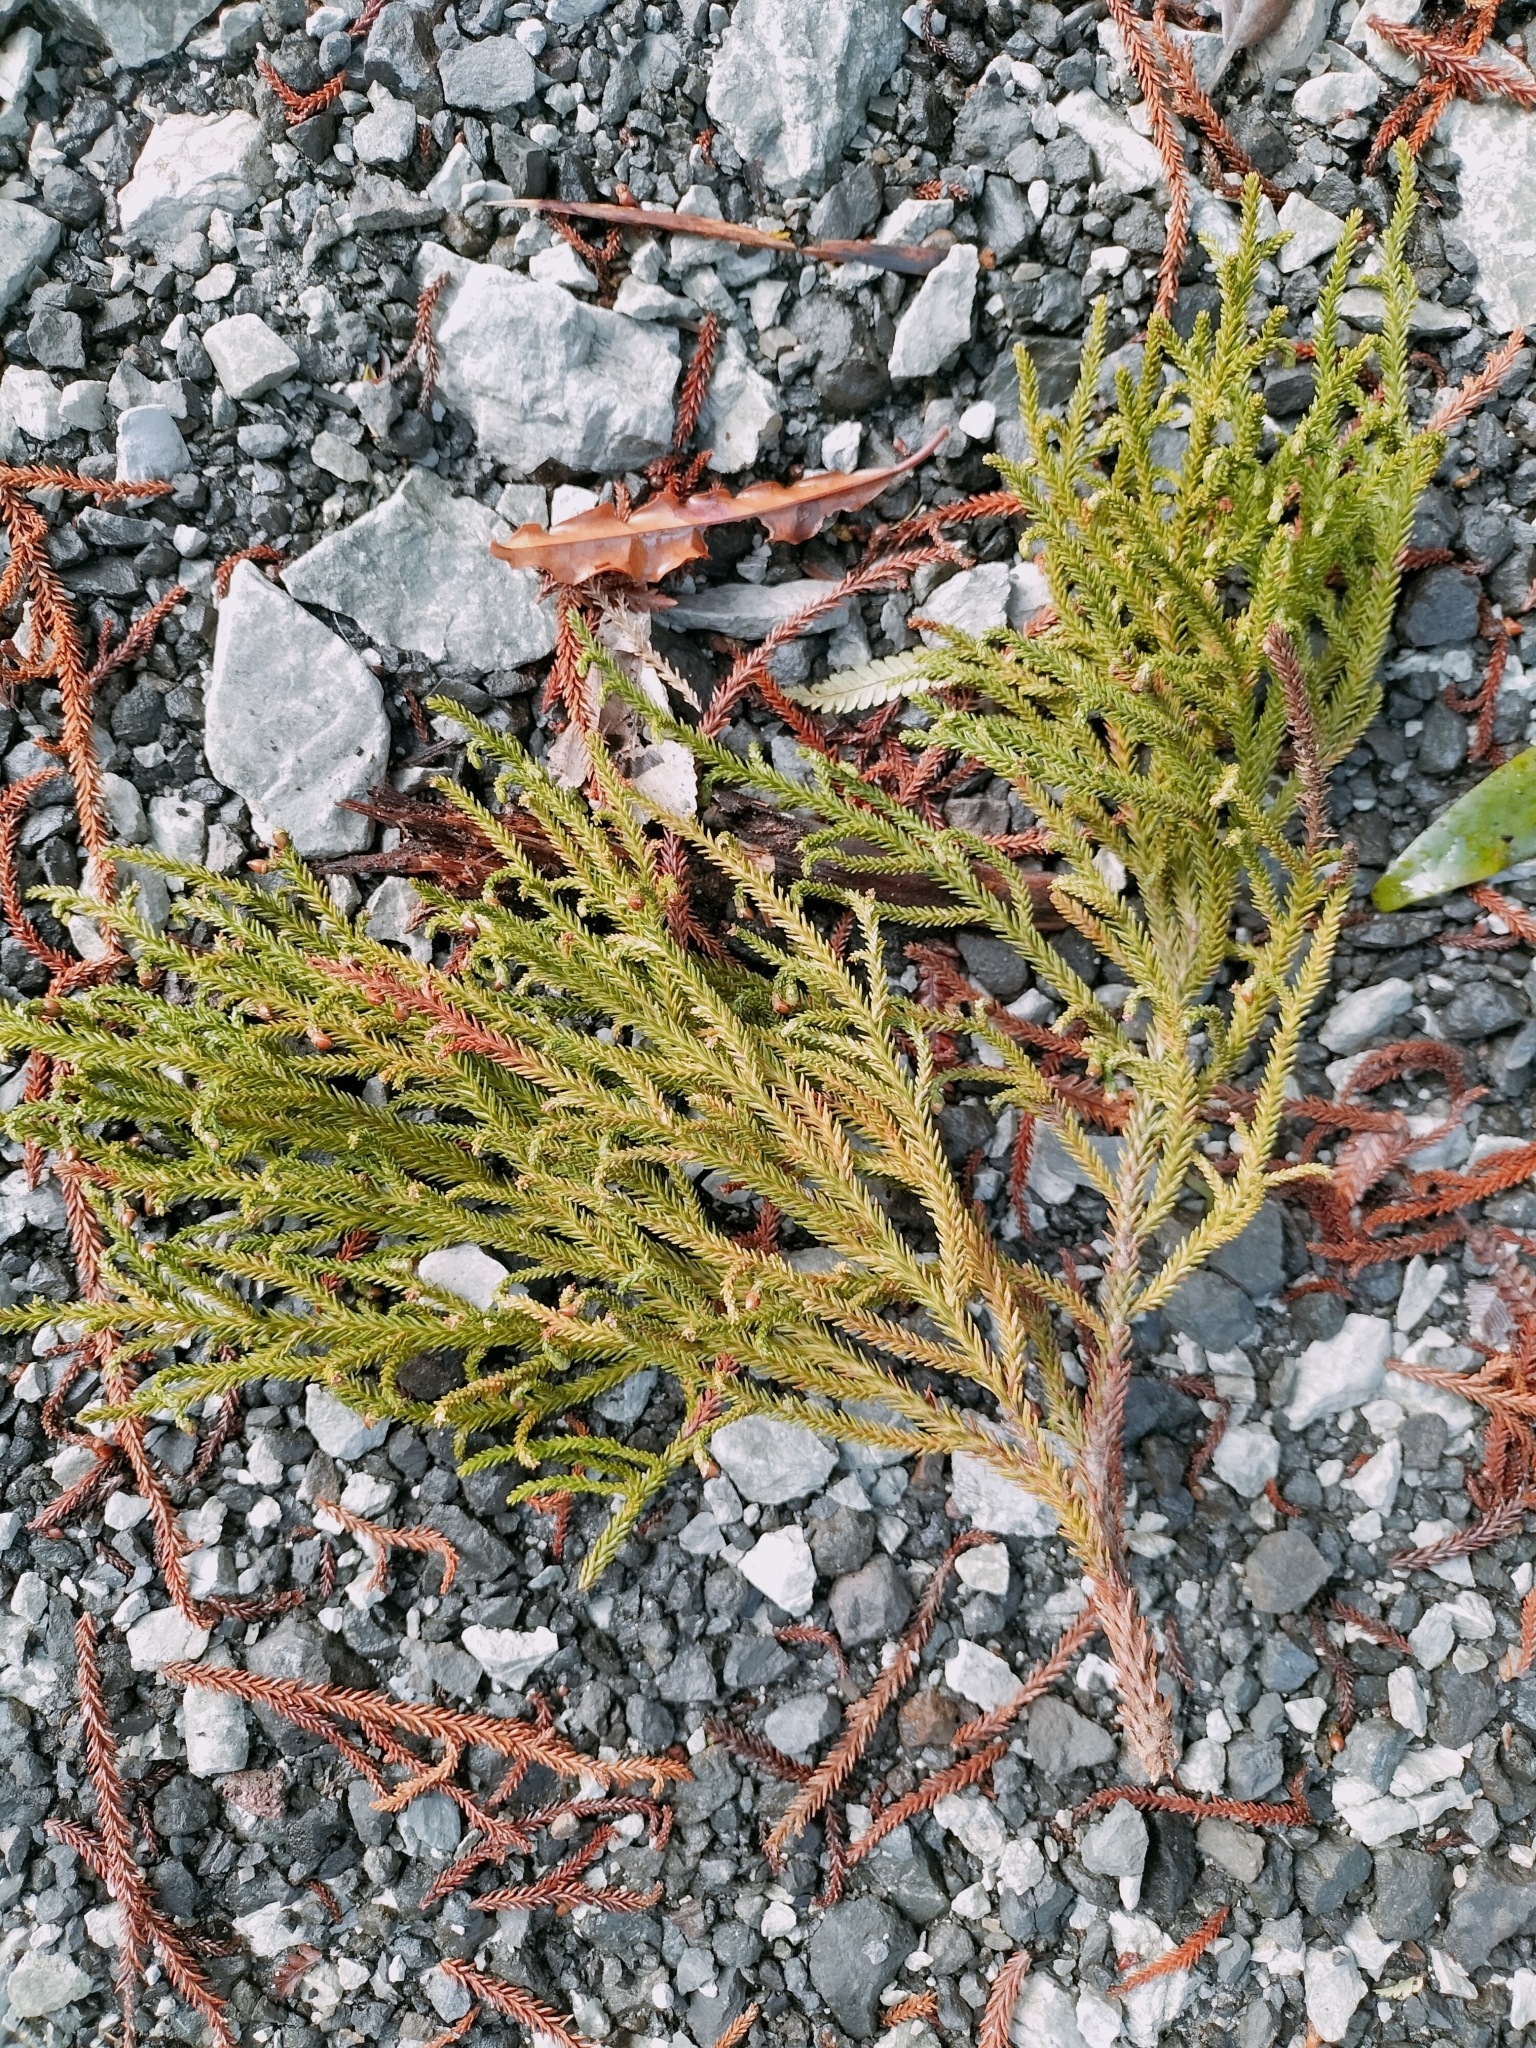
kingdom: Plantae
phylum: Tracheophyta
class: Pinopsida
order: Pinales
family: Podocarpaceae
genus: Dacrydium
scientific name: Dacrydium cupressinum
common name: Red pine
